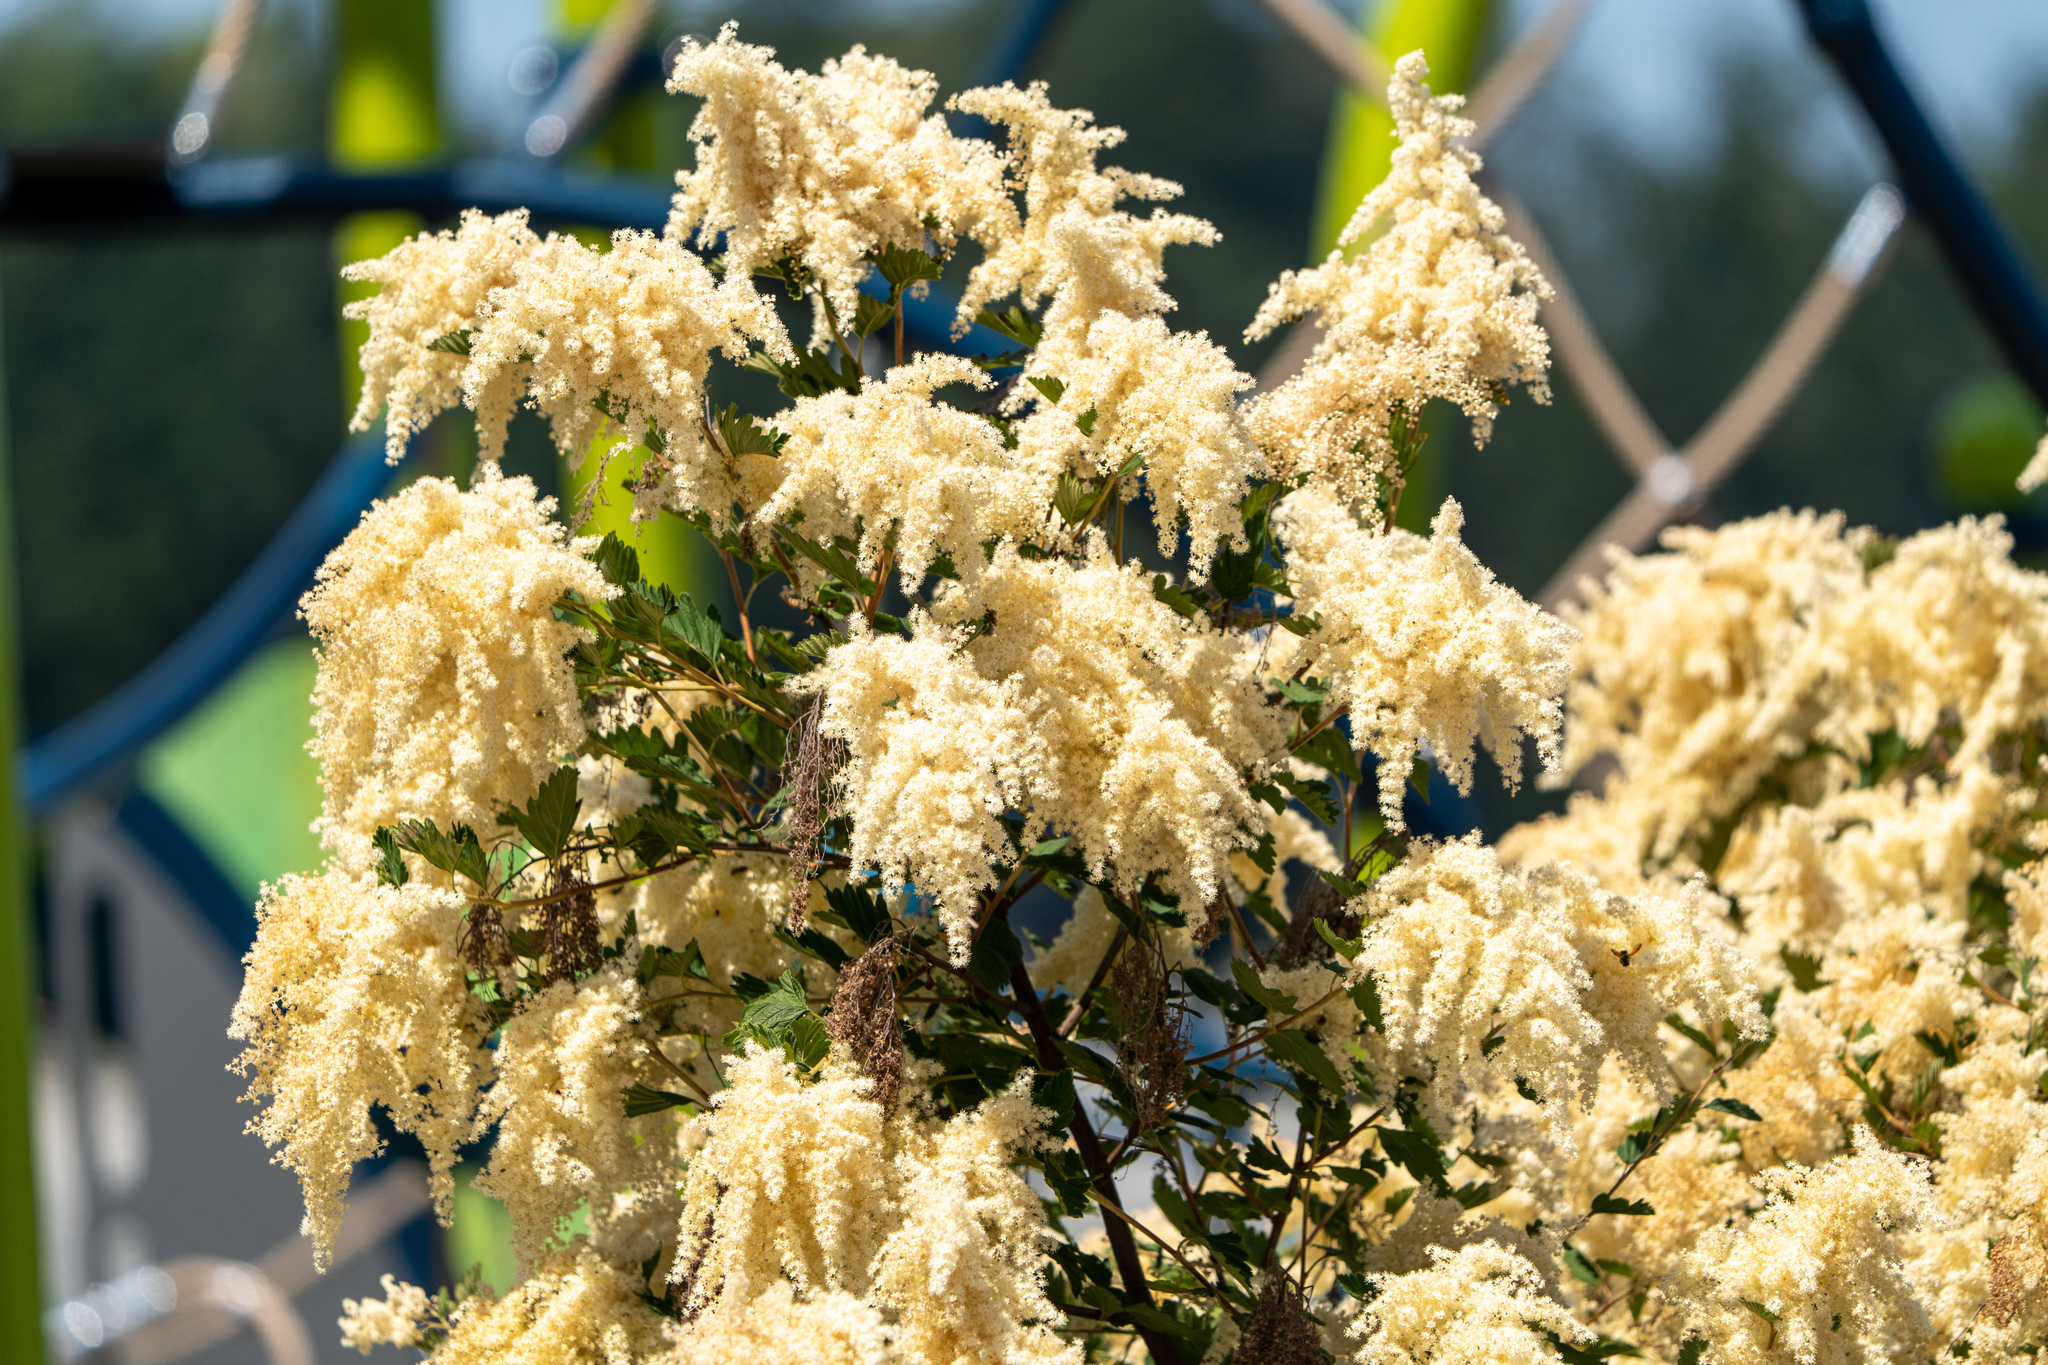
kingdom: Plantae
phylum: Tracheophyta
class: Magnoliopsida
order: Rosales
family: Rosaceae
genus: Holodiscus
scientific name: Holodiscus discolor
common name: Oceanspray
